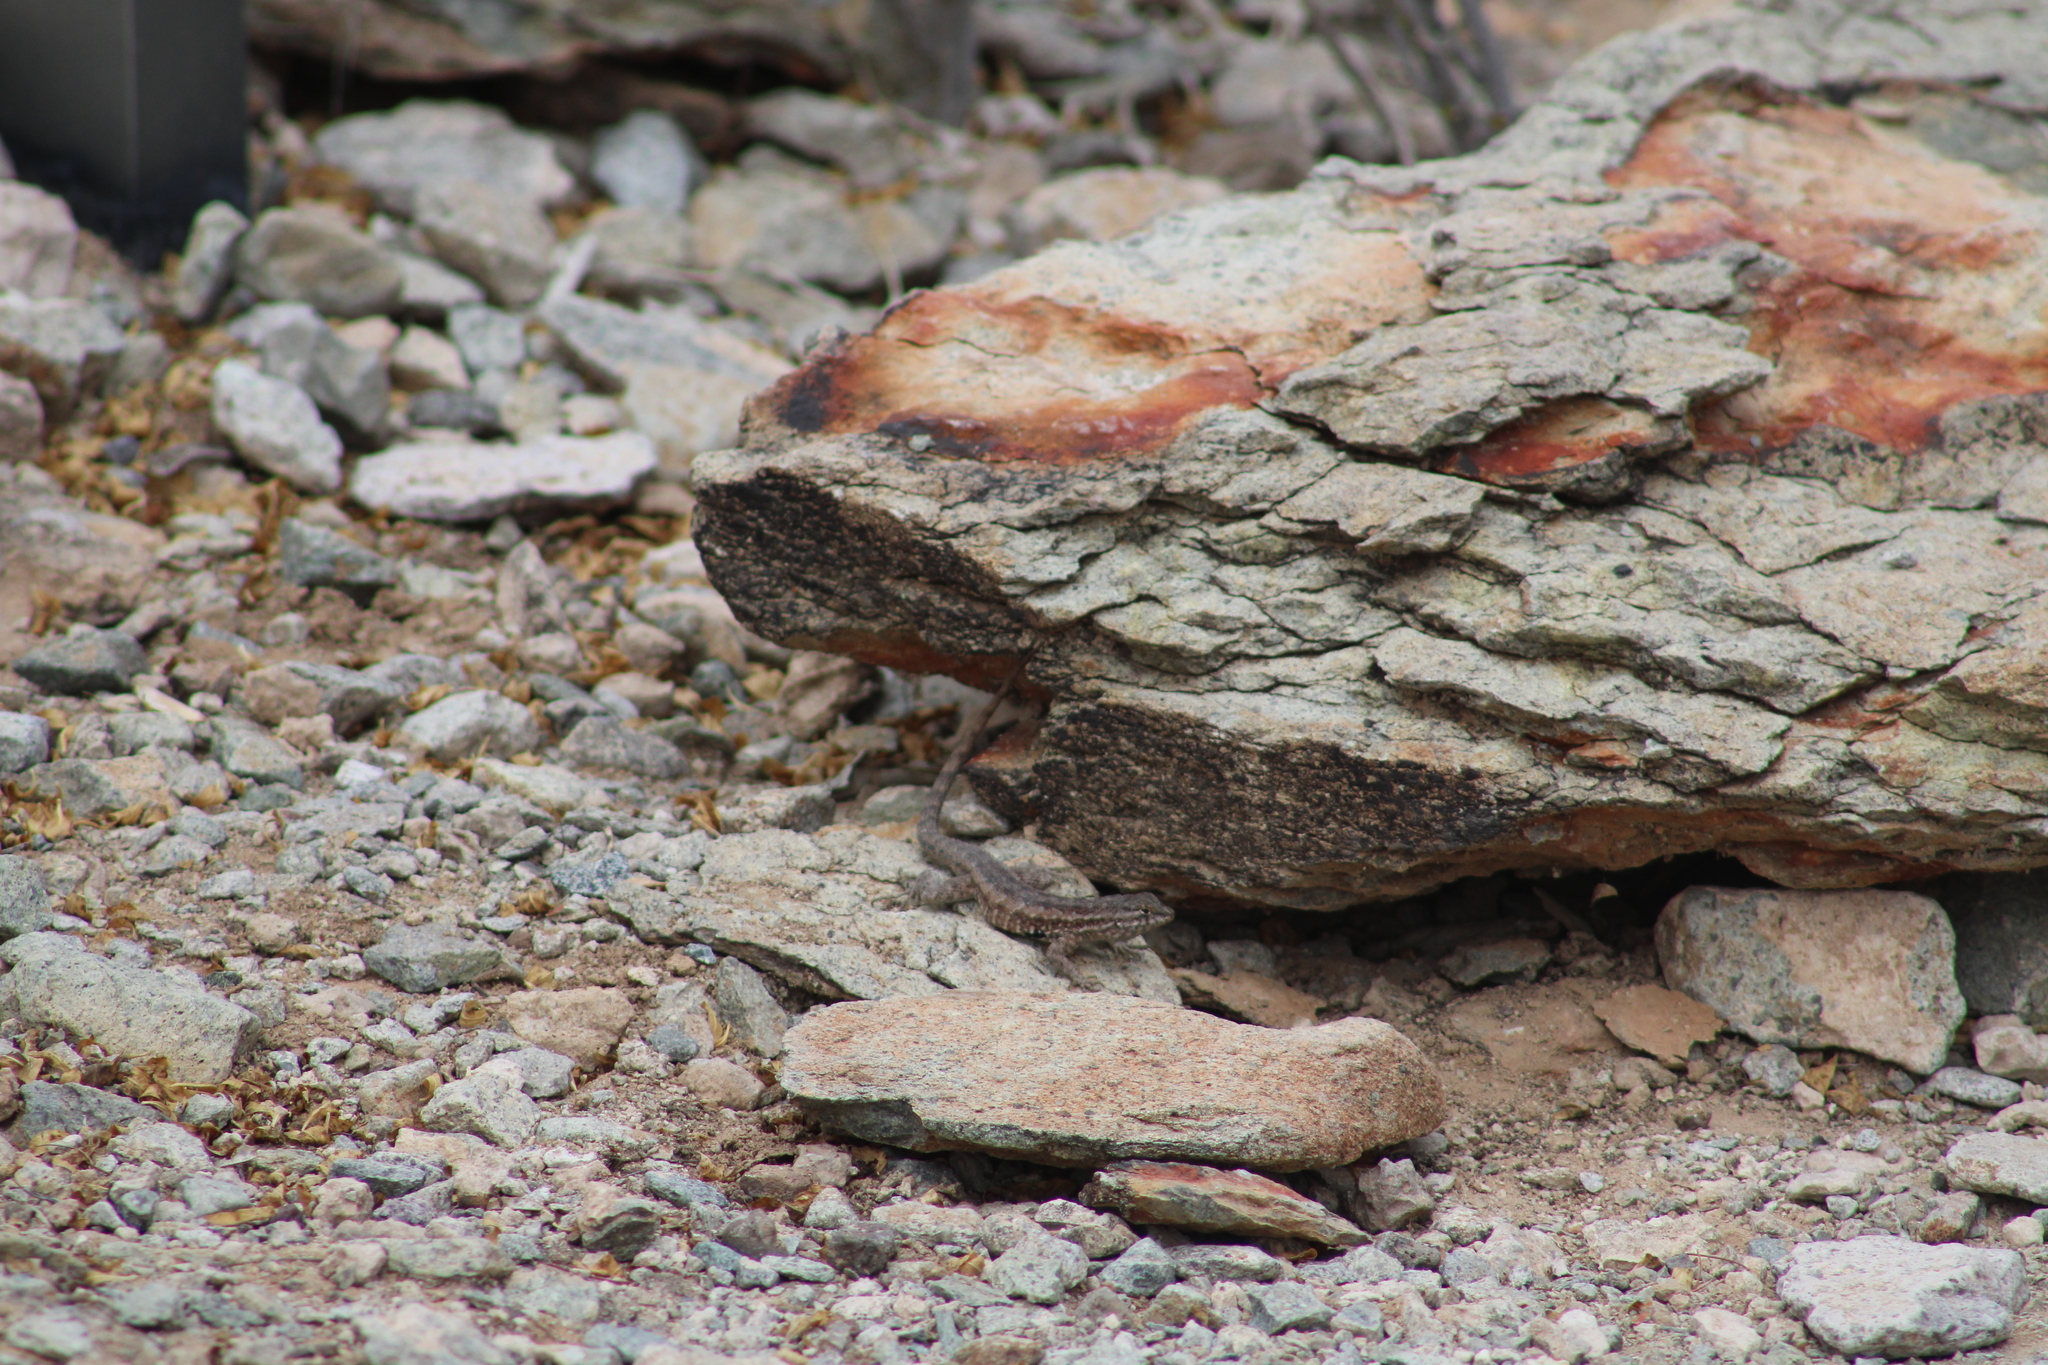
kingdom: Animalia
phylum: Chordata
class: Squamata
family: Phrynosomatidae
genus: Uta
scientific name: Uta stansburiana
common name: Side-blotched lizard
